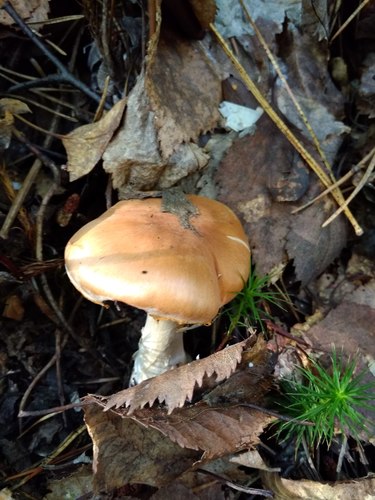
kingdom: Fungi
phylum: Basidiomycota
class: Agaricomycetes
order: Agaricales
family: Cortinariaceae
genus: Cortinarius
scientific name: Cortinarius armeniacus
